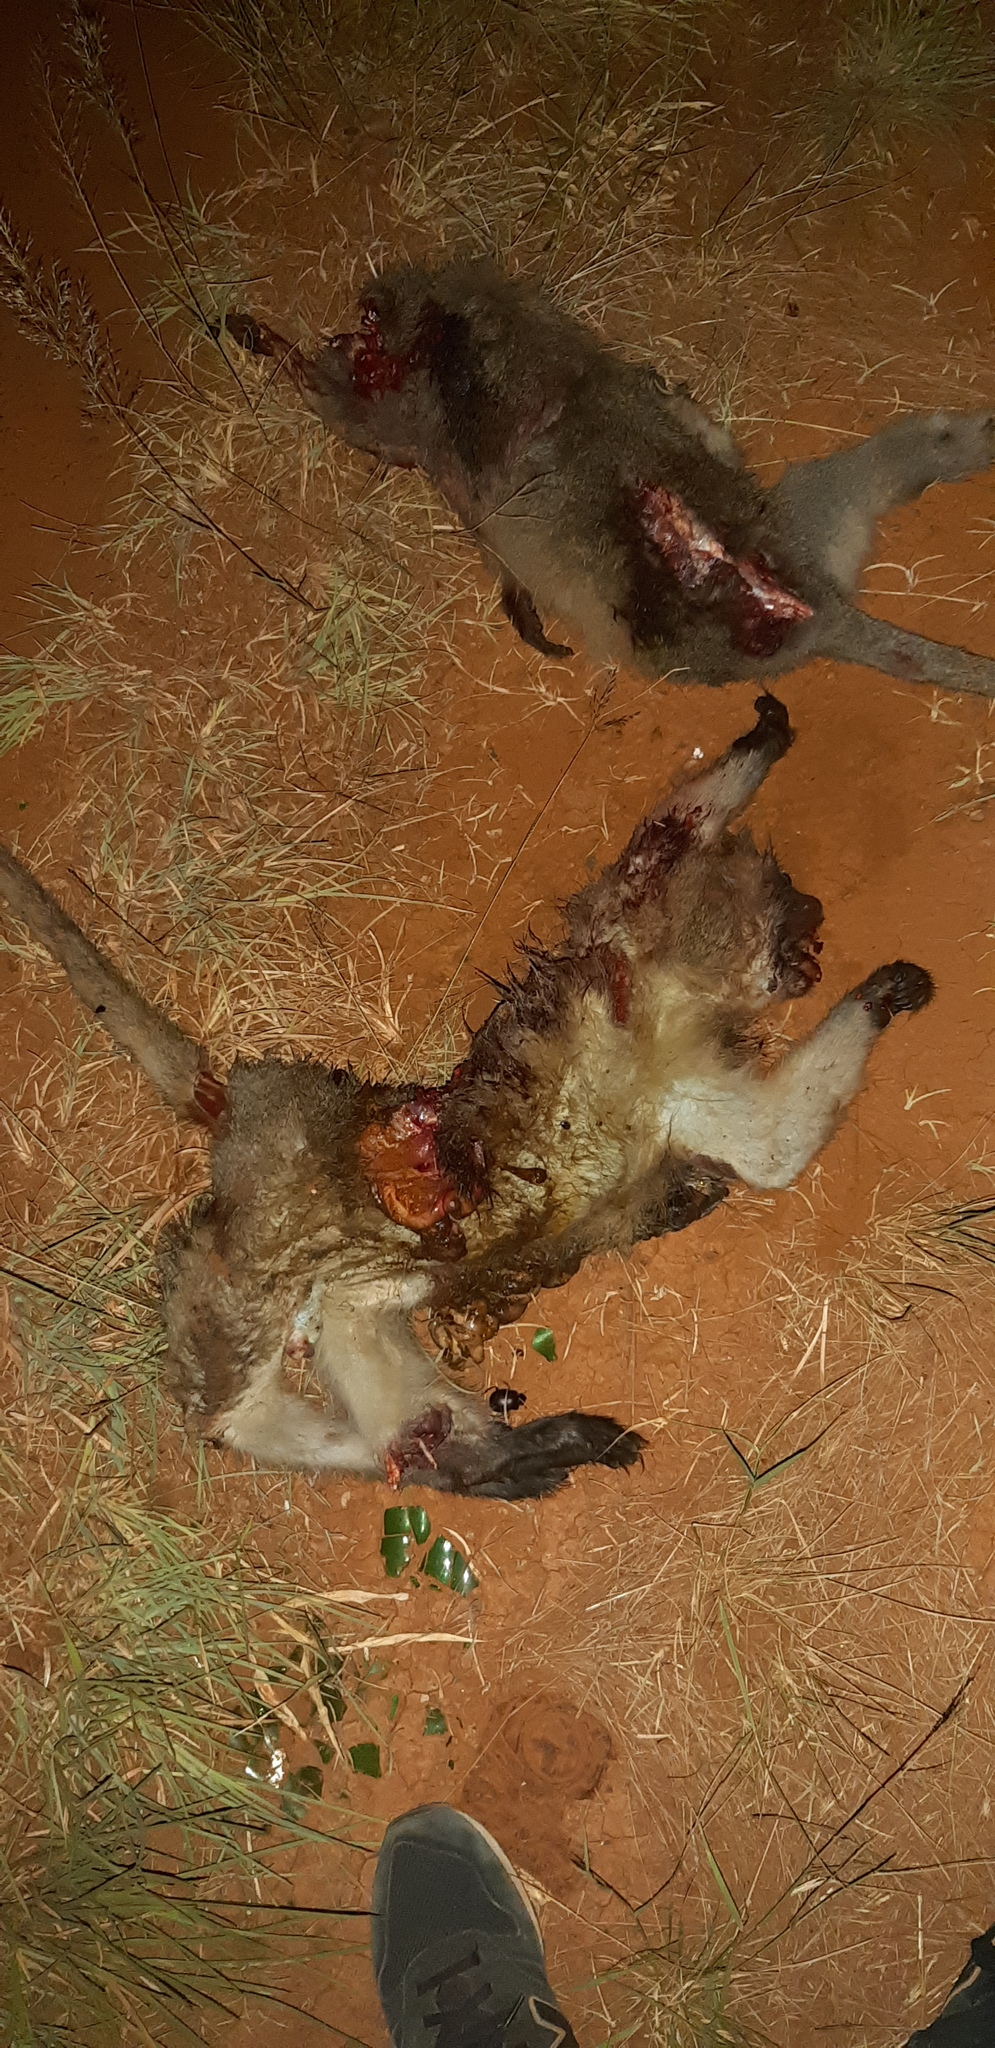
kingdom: Animalia
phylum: Chordata
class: Mammalia
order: Primates
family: Cercopithecidae
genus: Chlorocebus
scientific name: Chlorocebus pygerythrus
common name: Vervet monkey
